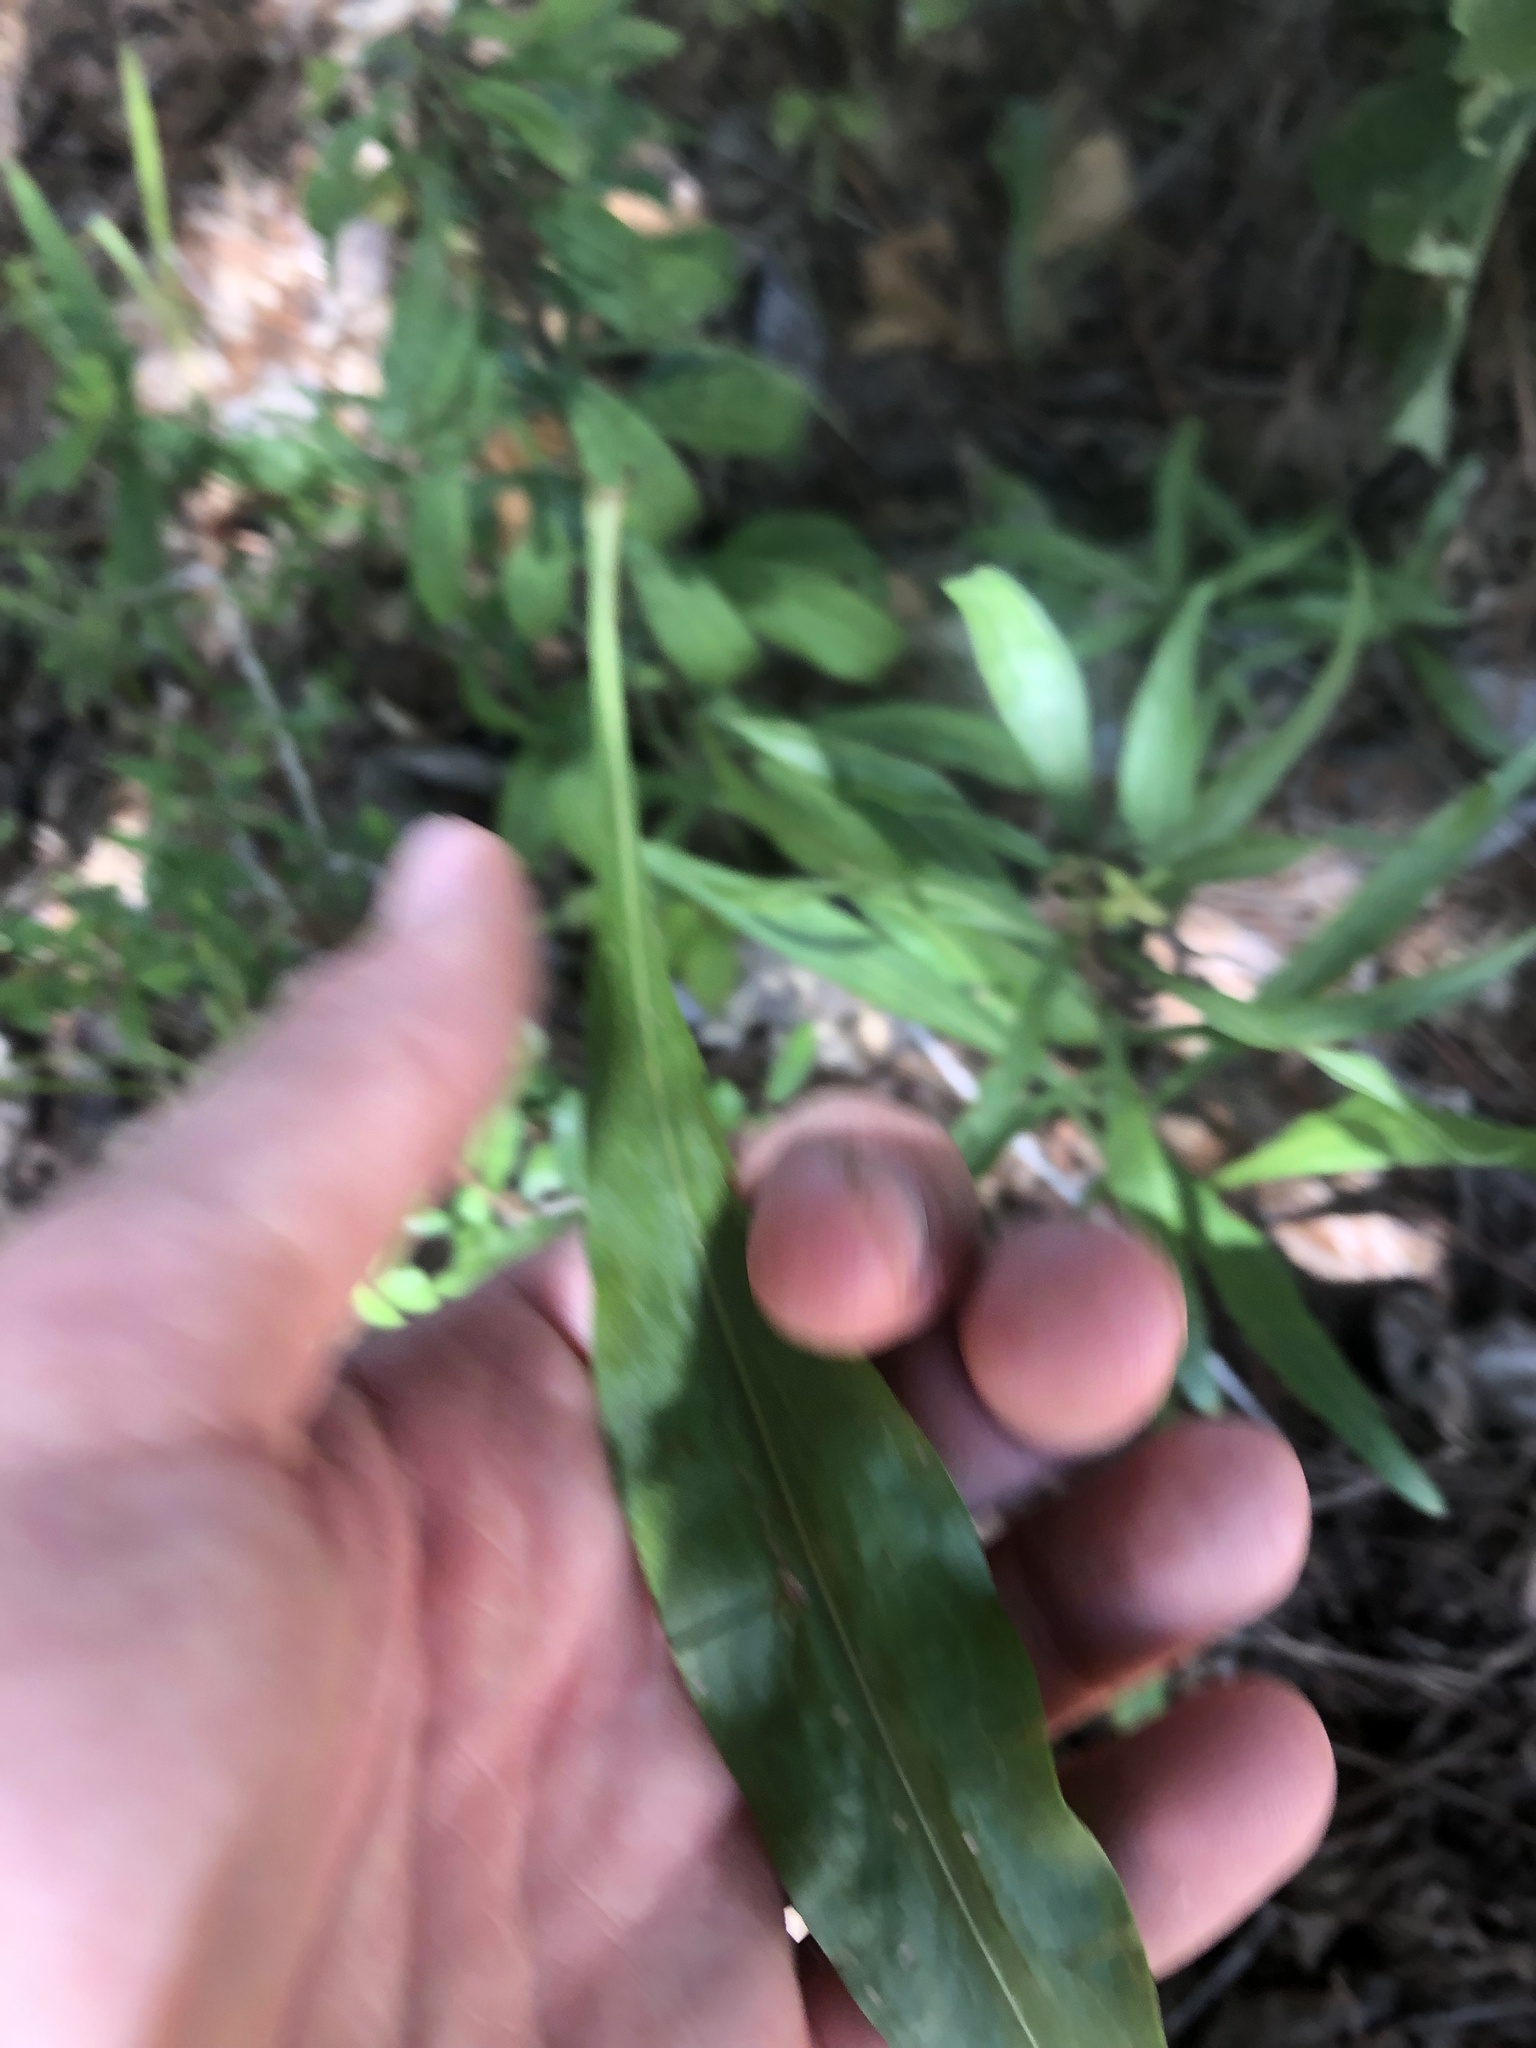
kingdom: Plantae
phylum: Tracheophyta
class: Magnoliopsida
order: Asterales
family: Asteraceae
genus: Liatris
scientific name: Liatris squarrulosa
